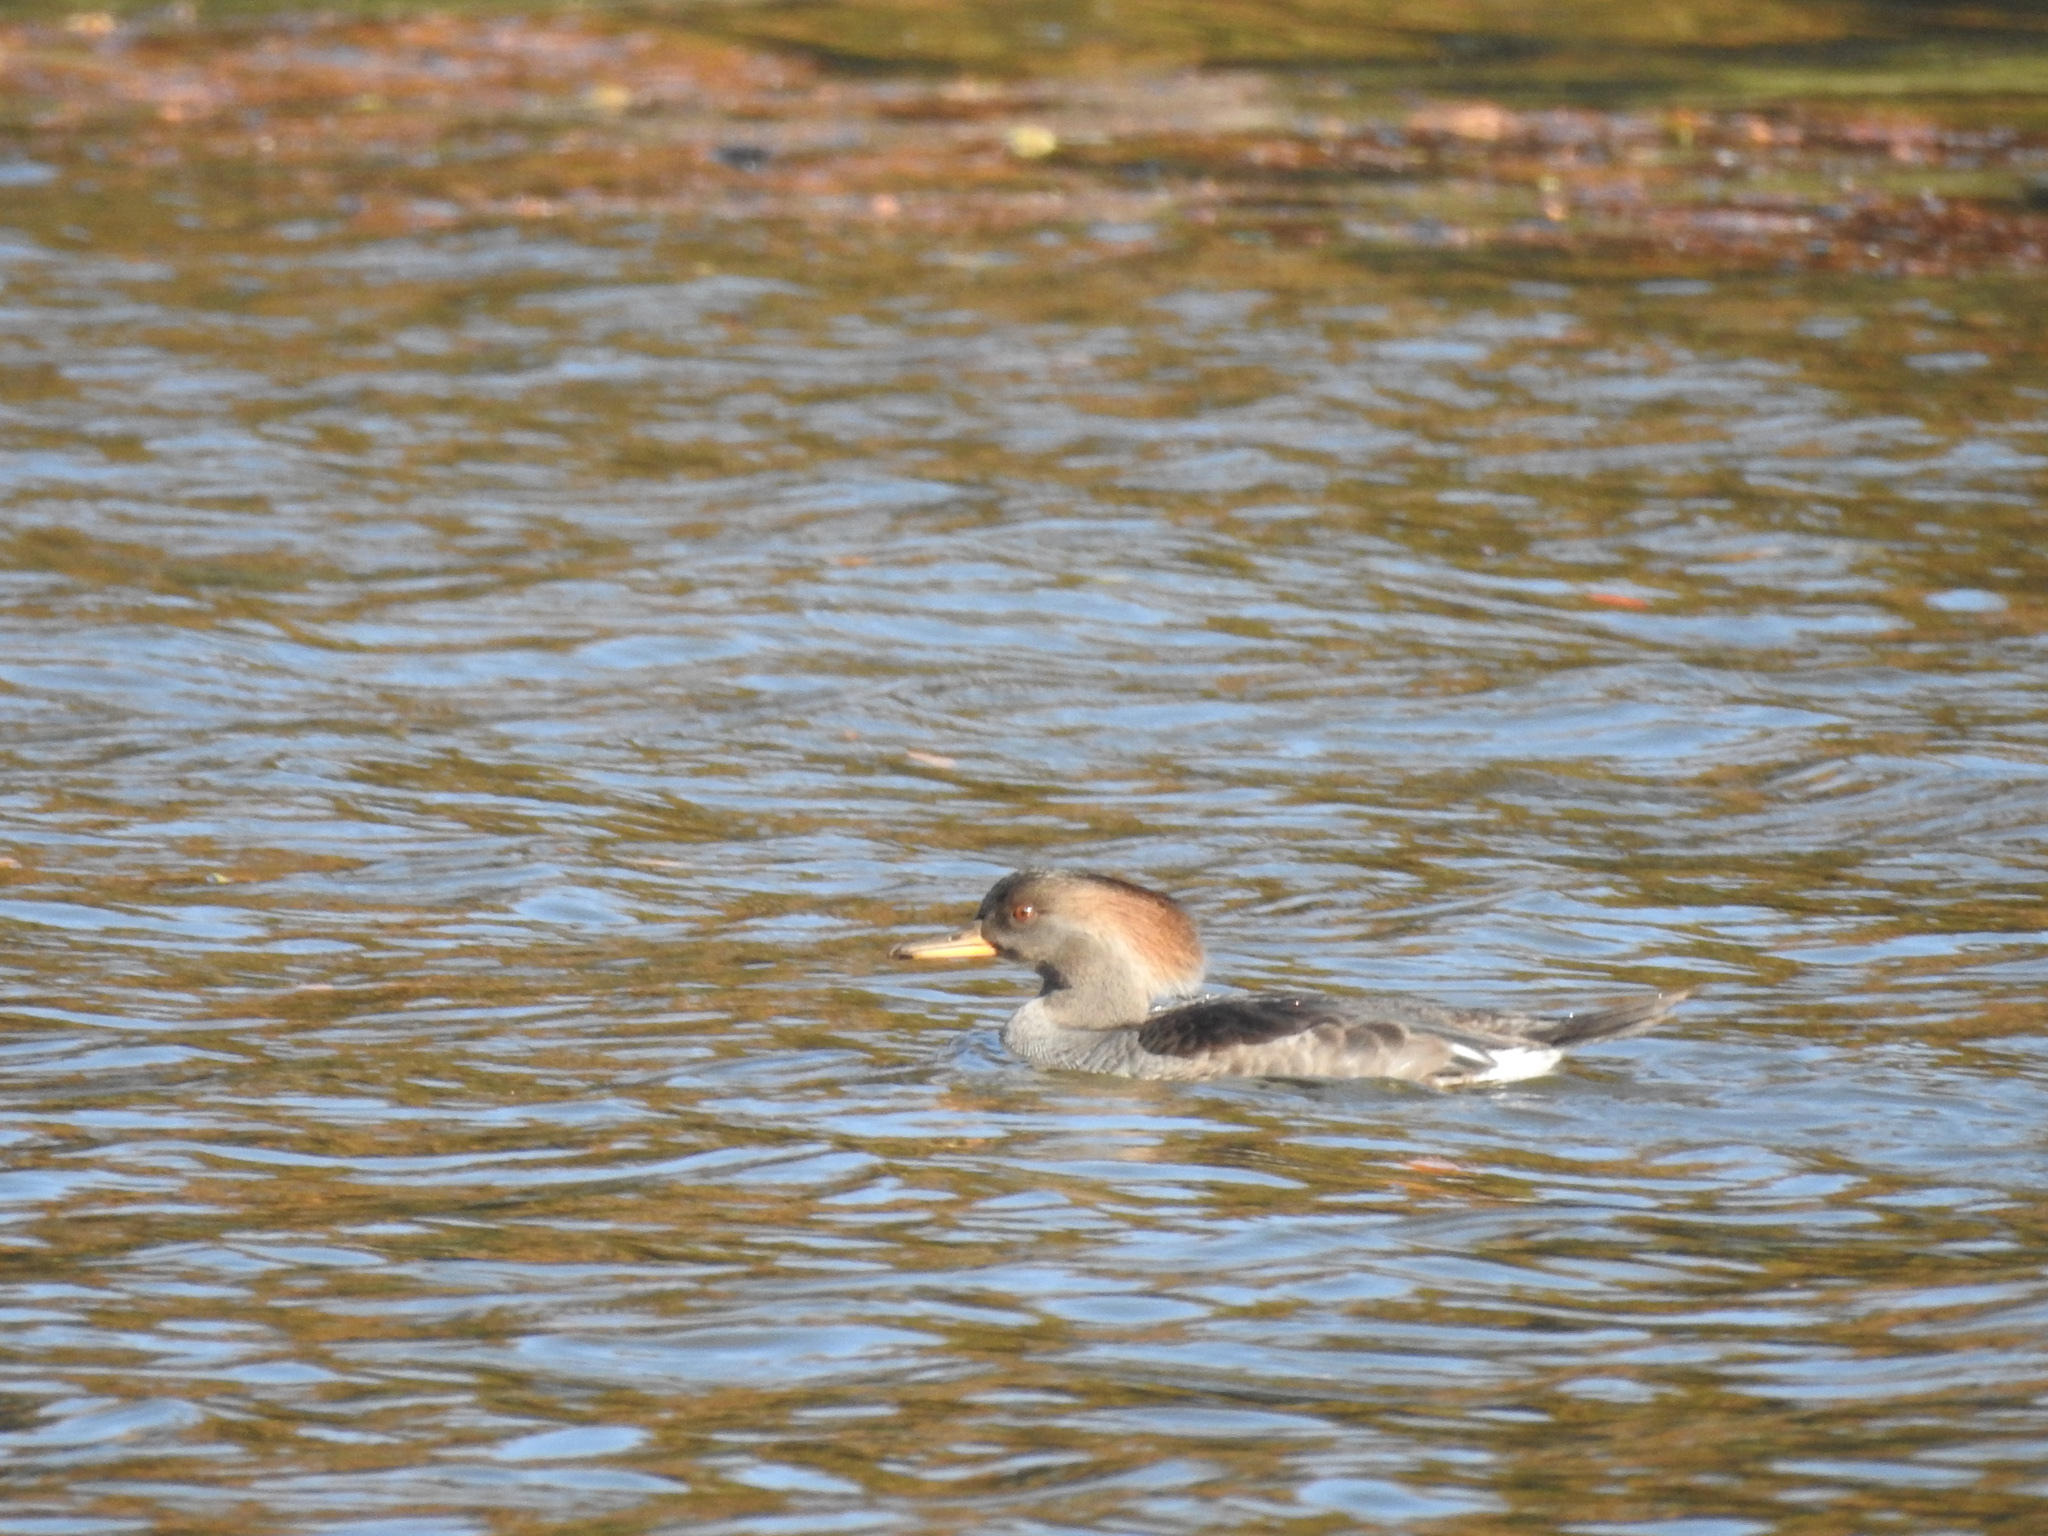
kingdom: Animalia
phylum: Chordata
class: Aves
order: Anseriformes
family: Anatidae
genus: Lophodytes
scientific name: Lophodytes cucullatus
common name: Hooded merganser
